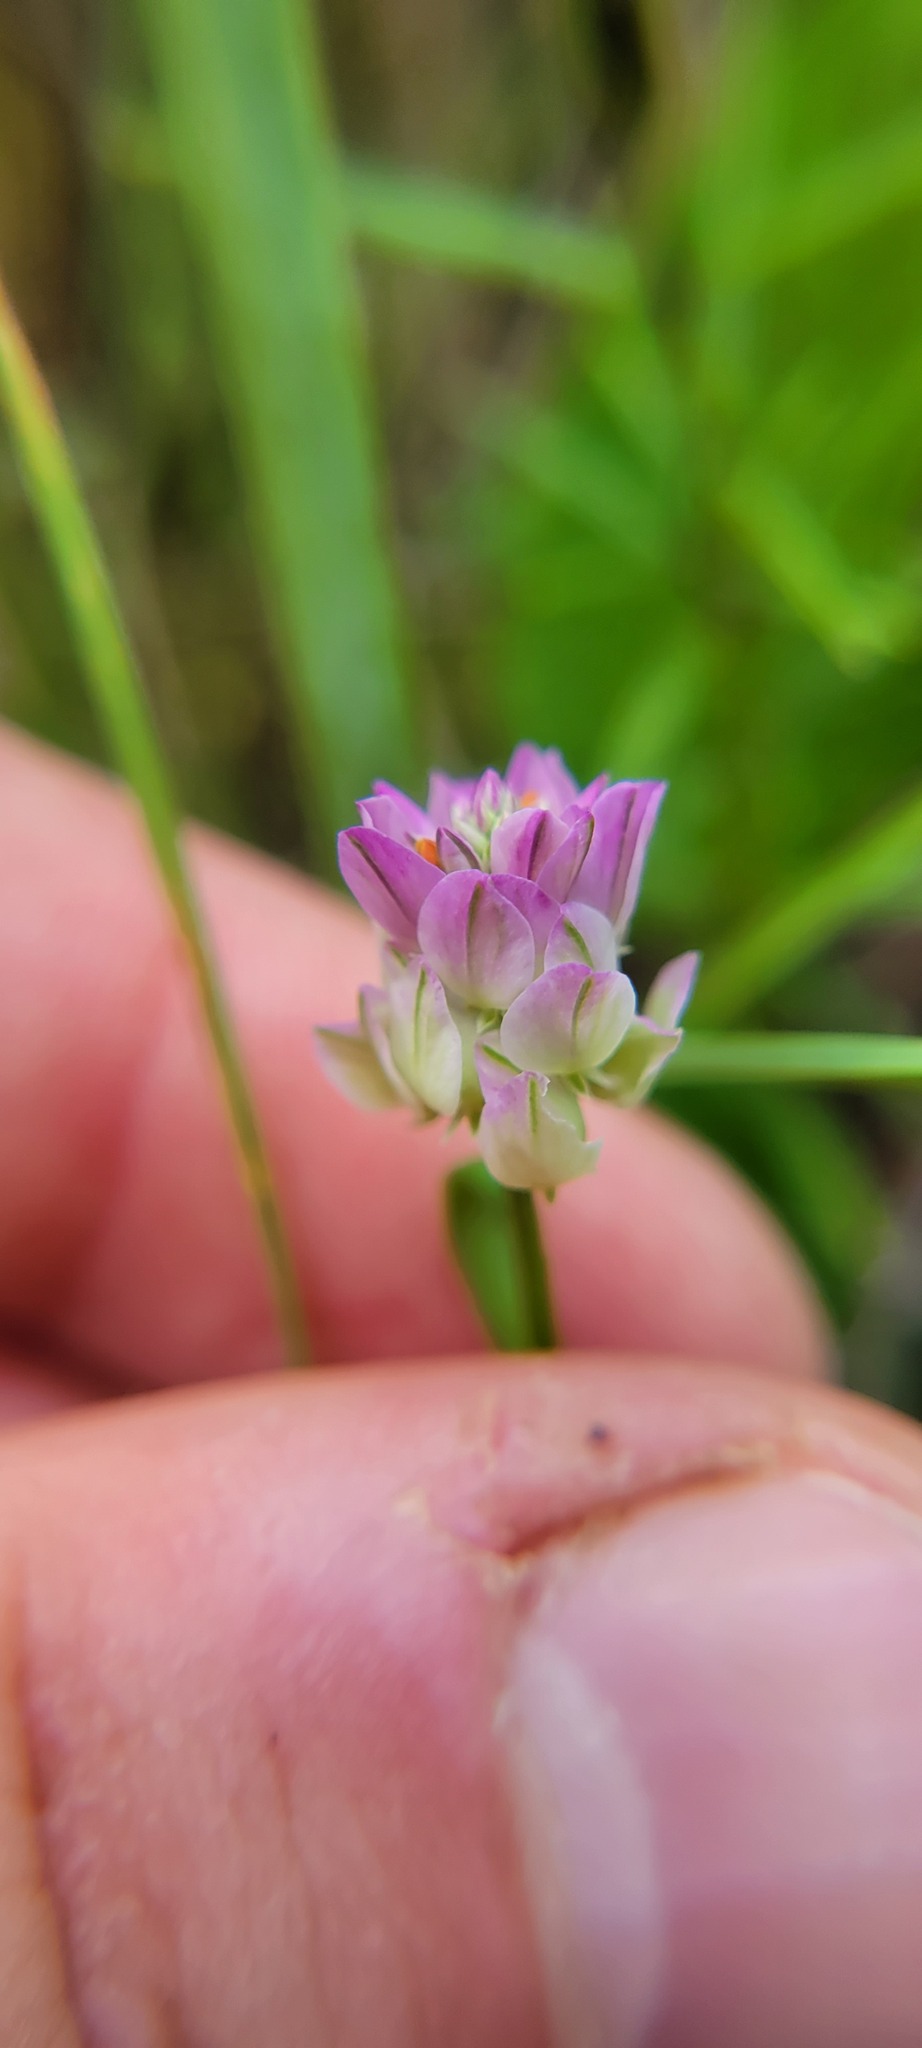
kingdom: Plantae
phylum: Tracheophyta
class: Magnoliopsida
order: Fabales
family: Polygalaceae
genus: Polygala
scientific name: Polygala sanguinea
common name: Blood milkwort
